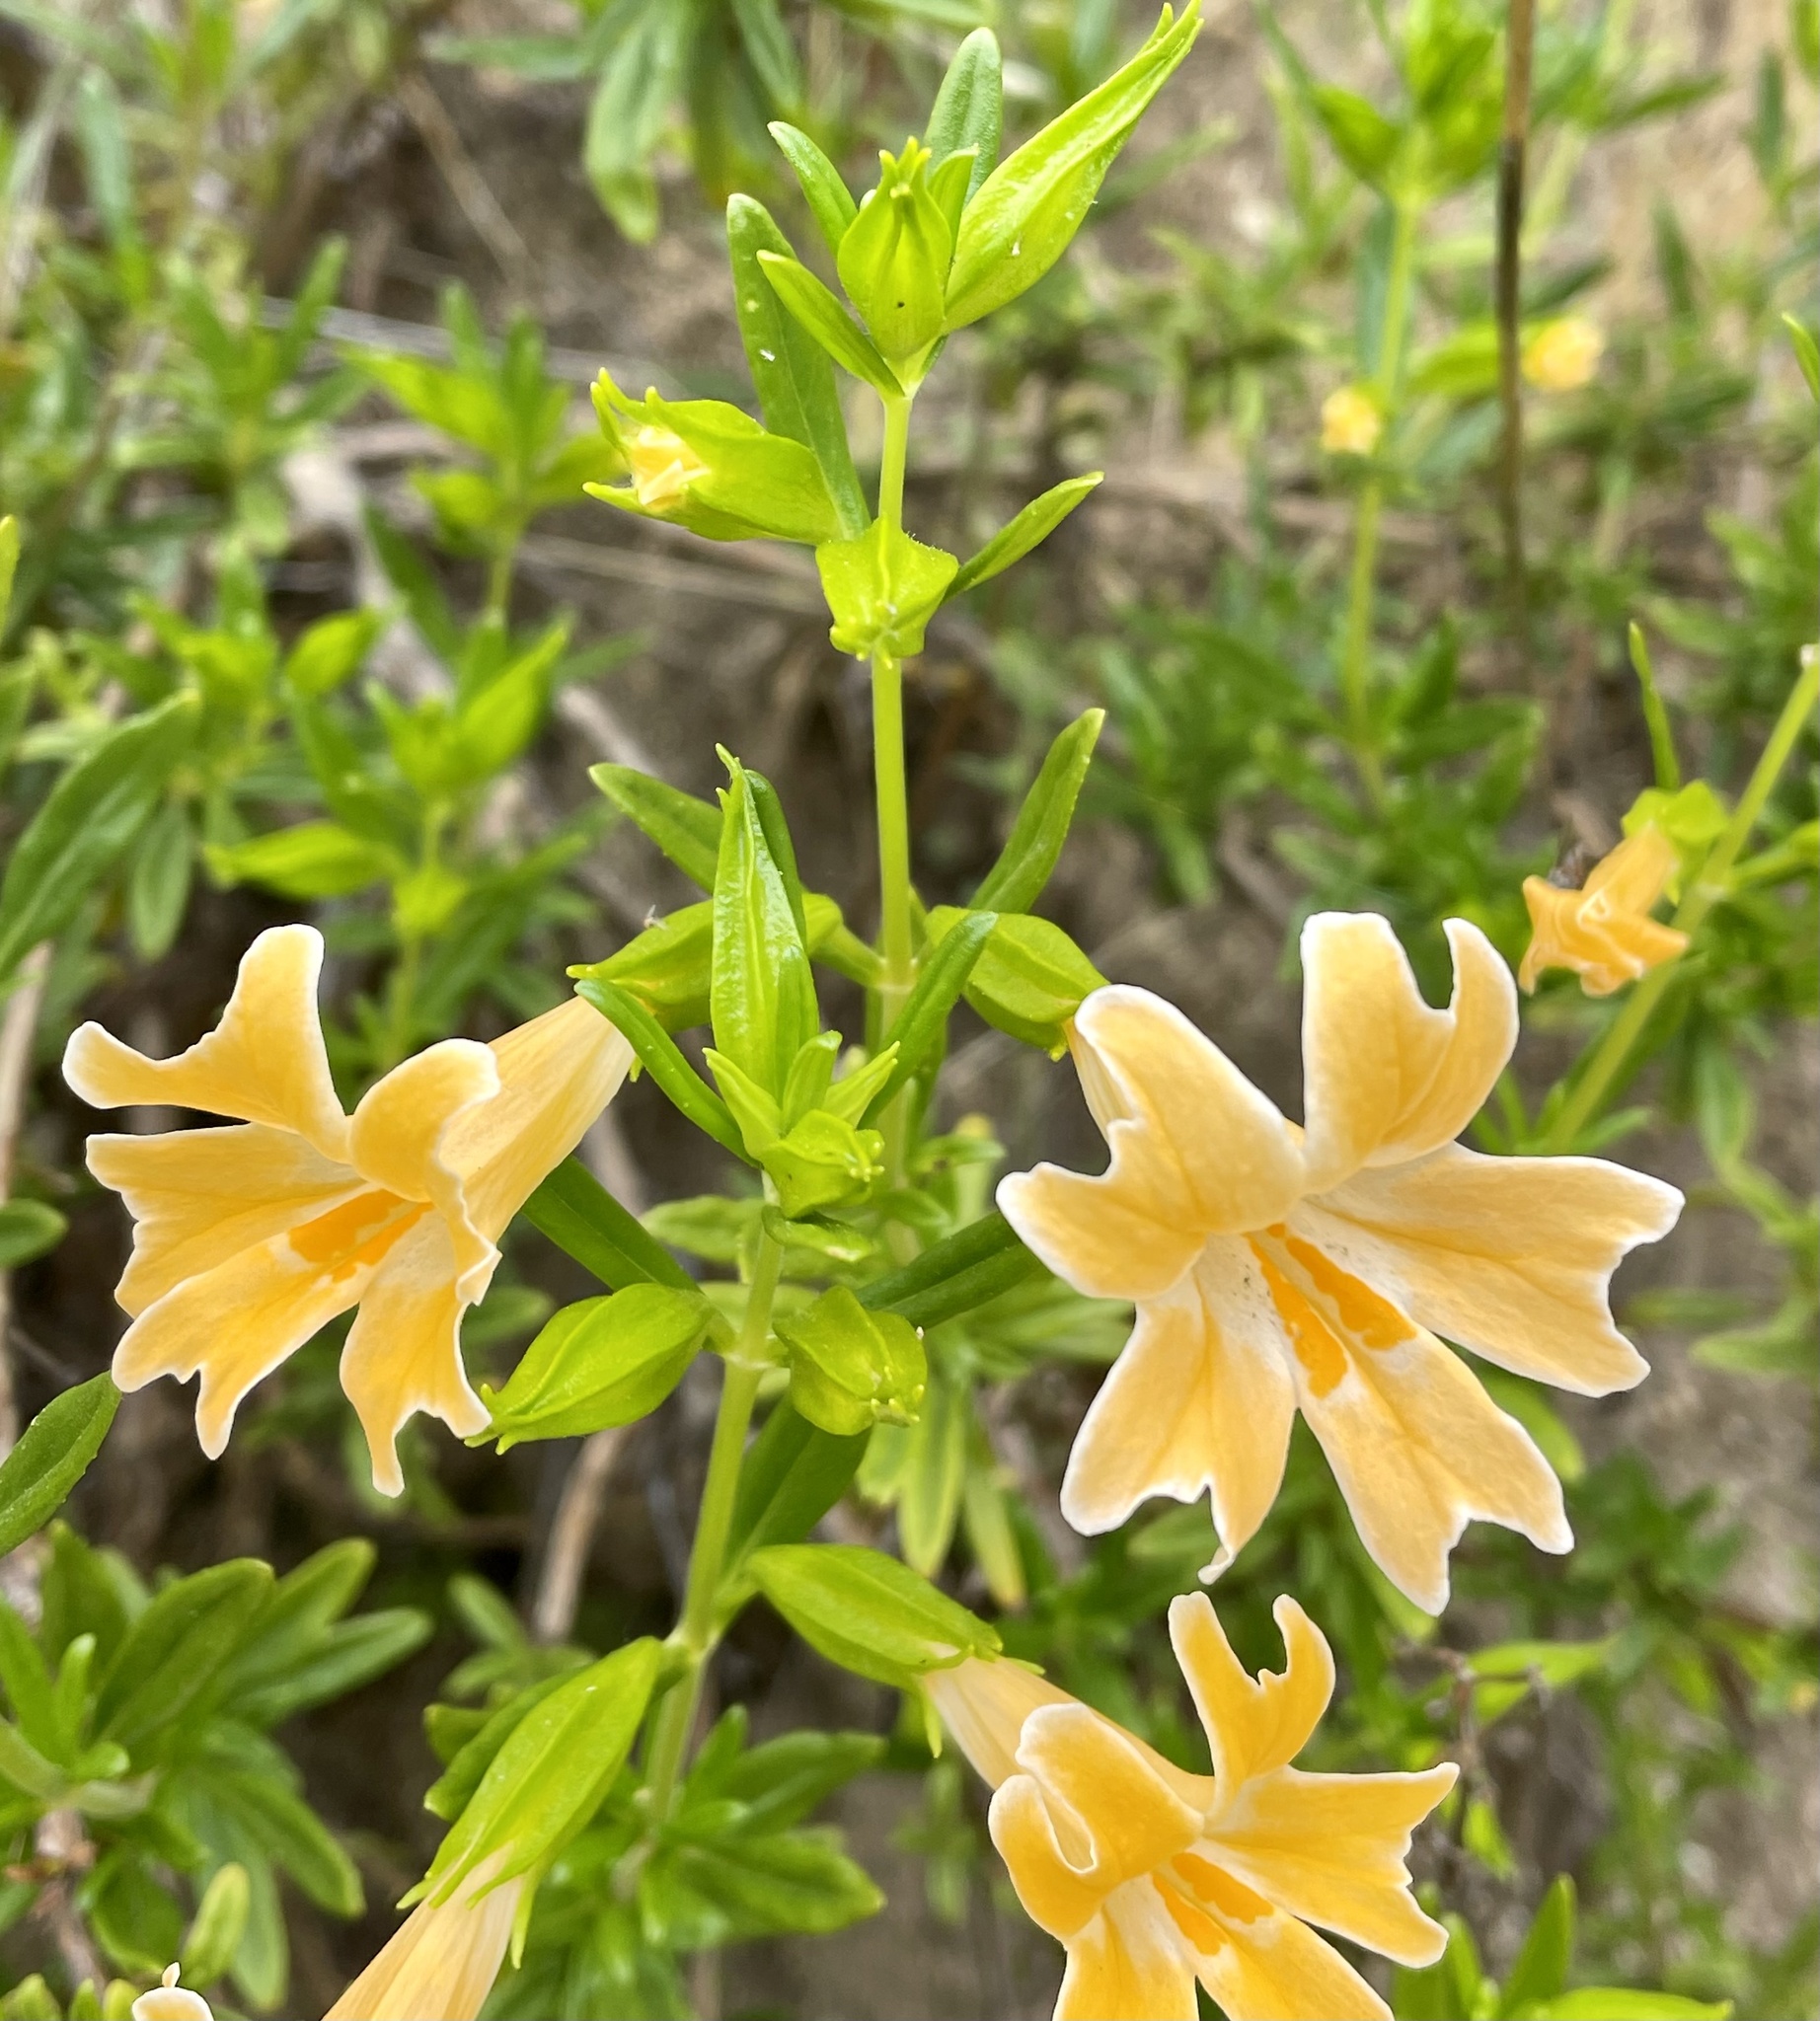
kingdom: Plantae
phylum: Tracheophyta
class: Magnoliopsida
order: Lamiales
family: Phrymaceae
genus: Diplacus
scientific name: Diplacus linearis
